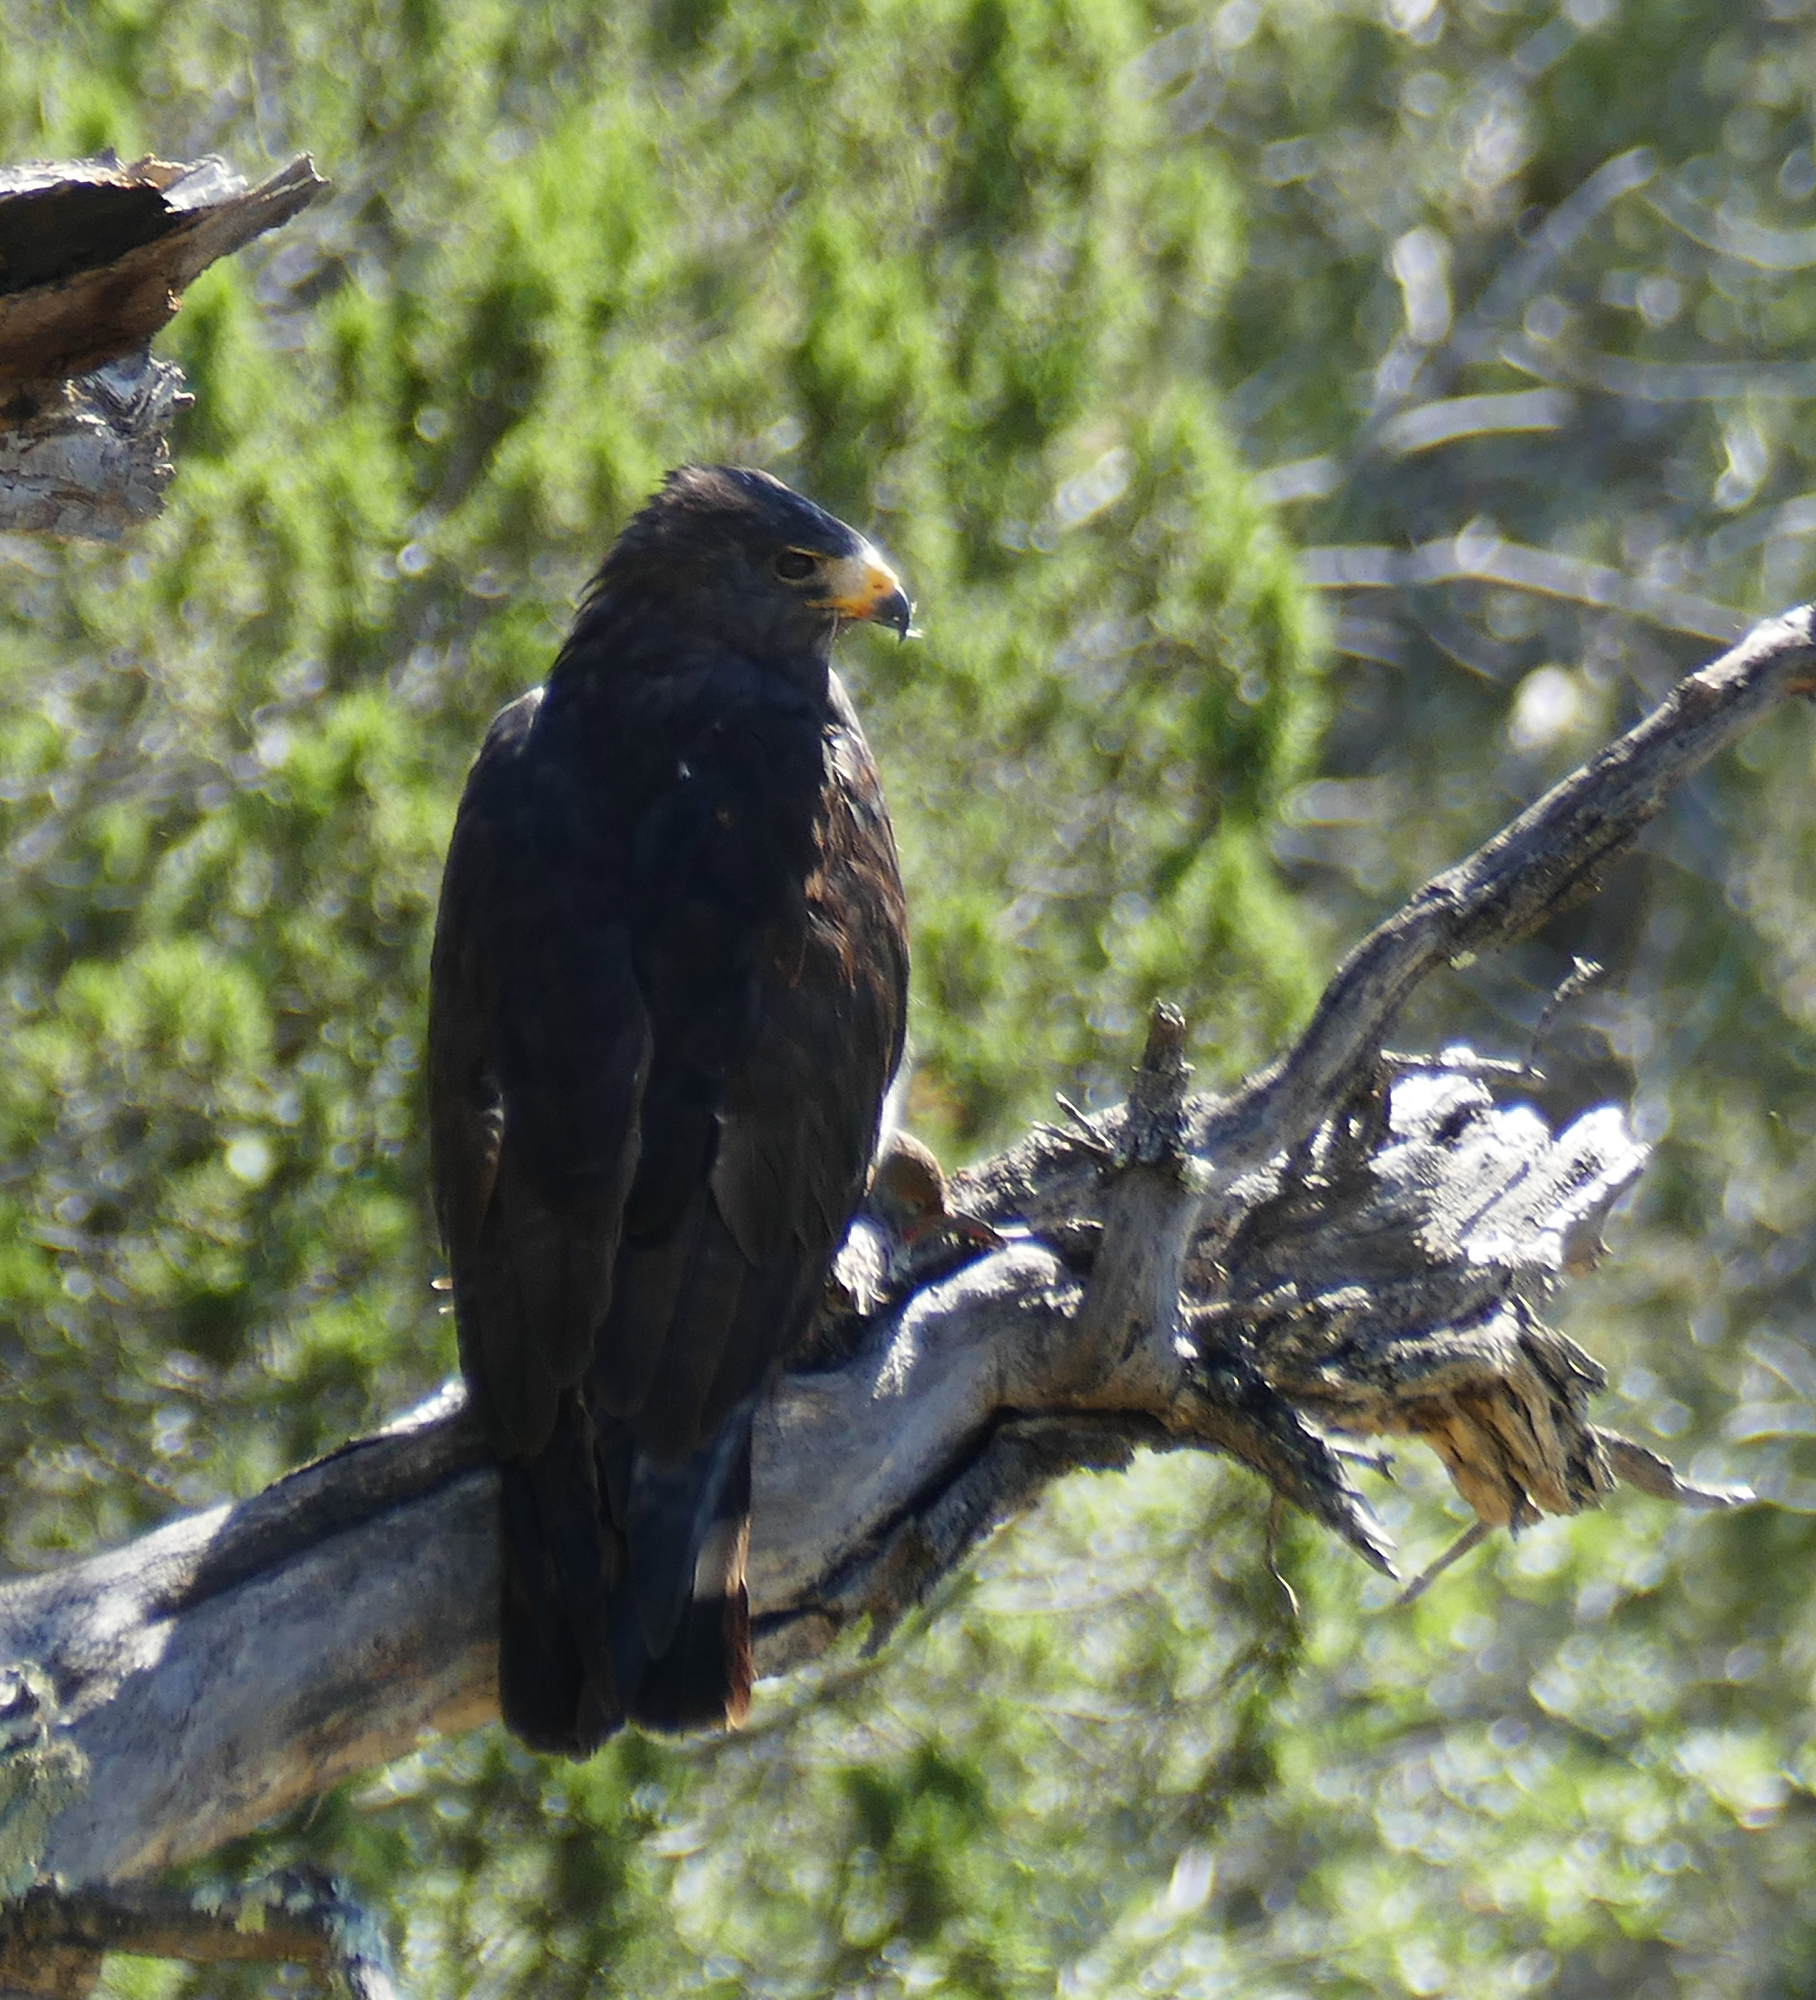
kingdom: Animalia
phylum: Chordata
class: Aves
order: Accipitriformes
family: Accipitridae
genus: Buteogallus
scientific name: Buteogallus anthracinus
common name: Common black hawk
